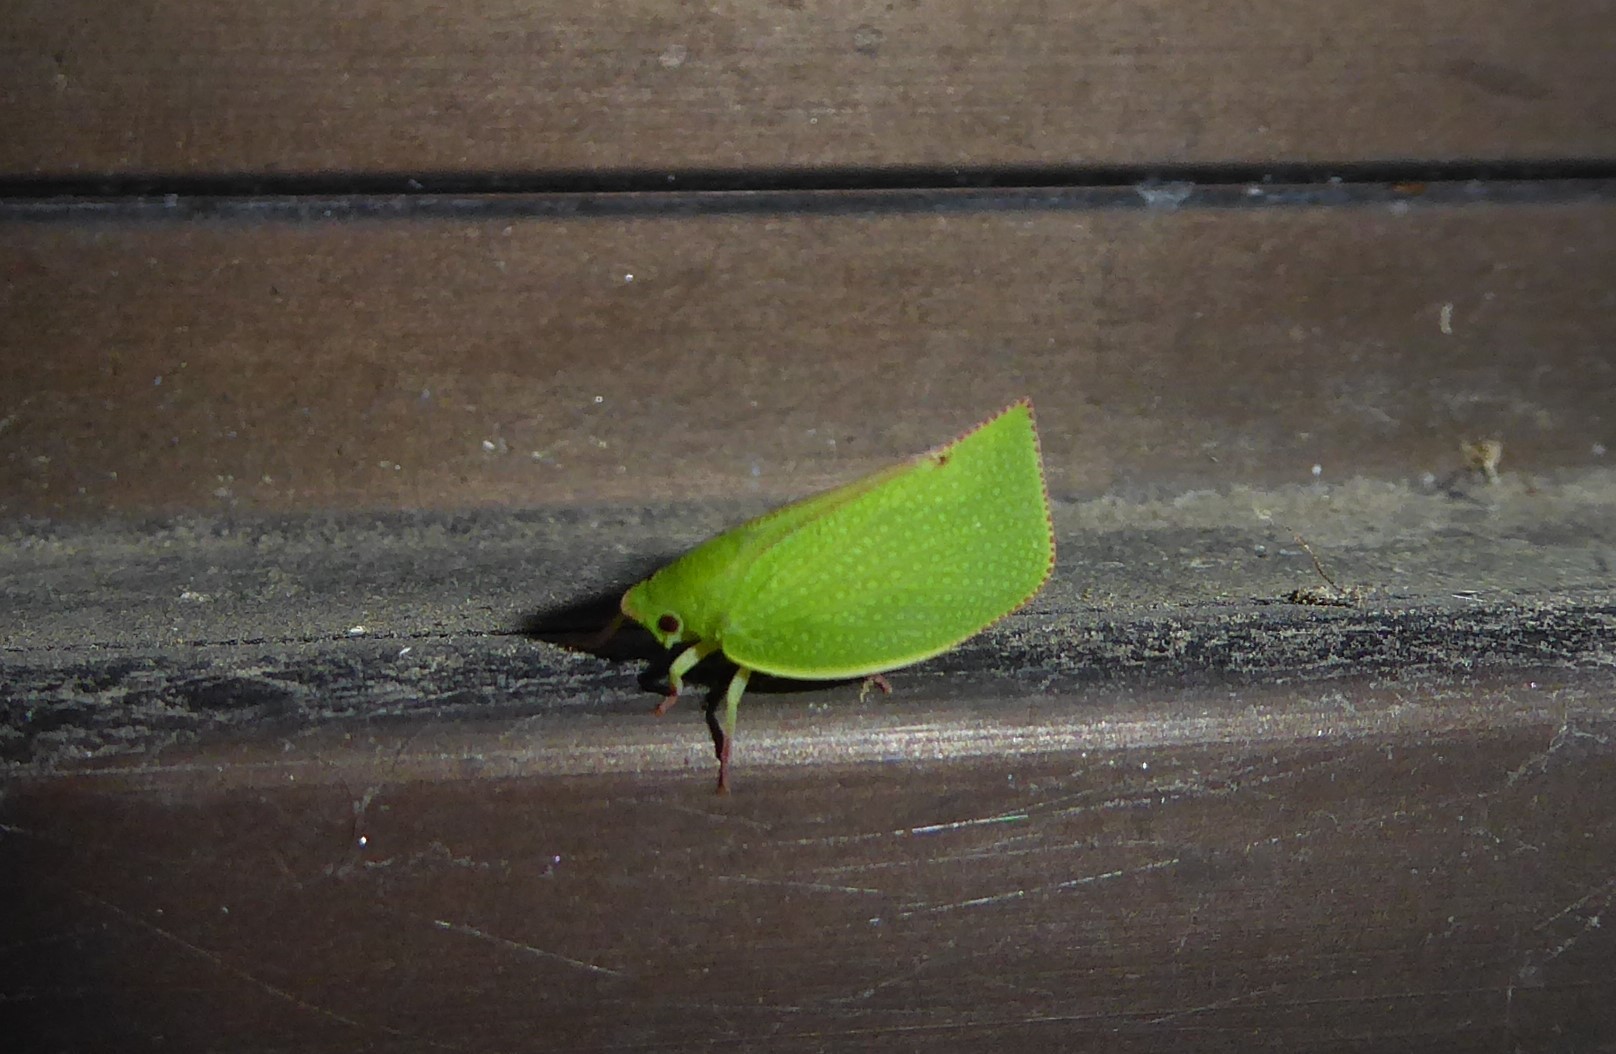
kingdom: Animalia
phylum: Arthropoda
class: Insecta
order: Hemiptera
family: Flatidae
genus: Siphanta
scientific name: Siphanta acuta
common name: Torpedo bug
